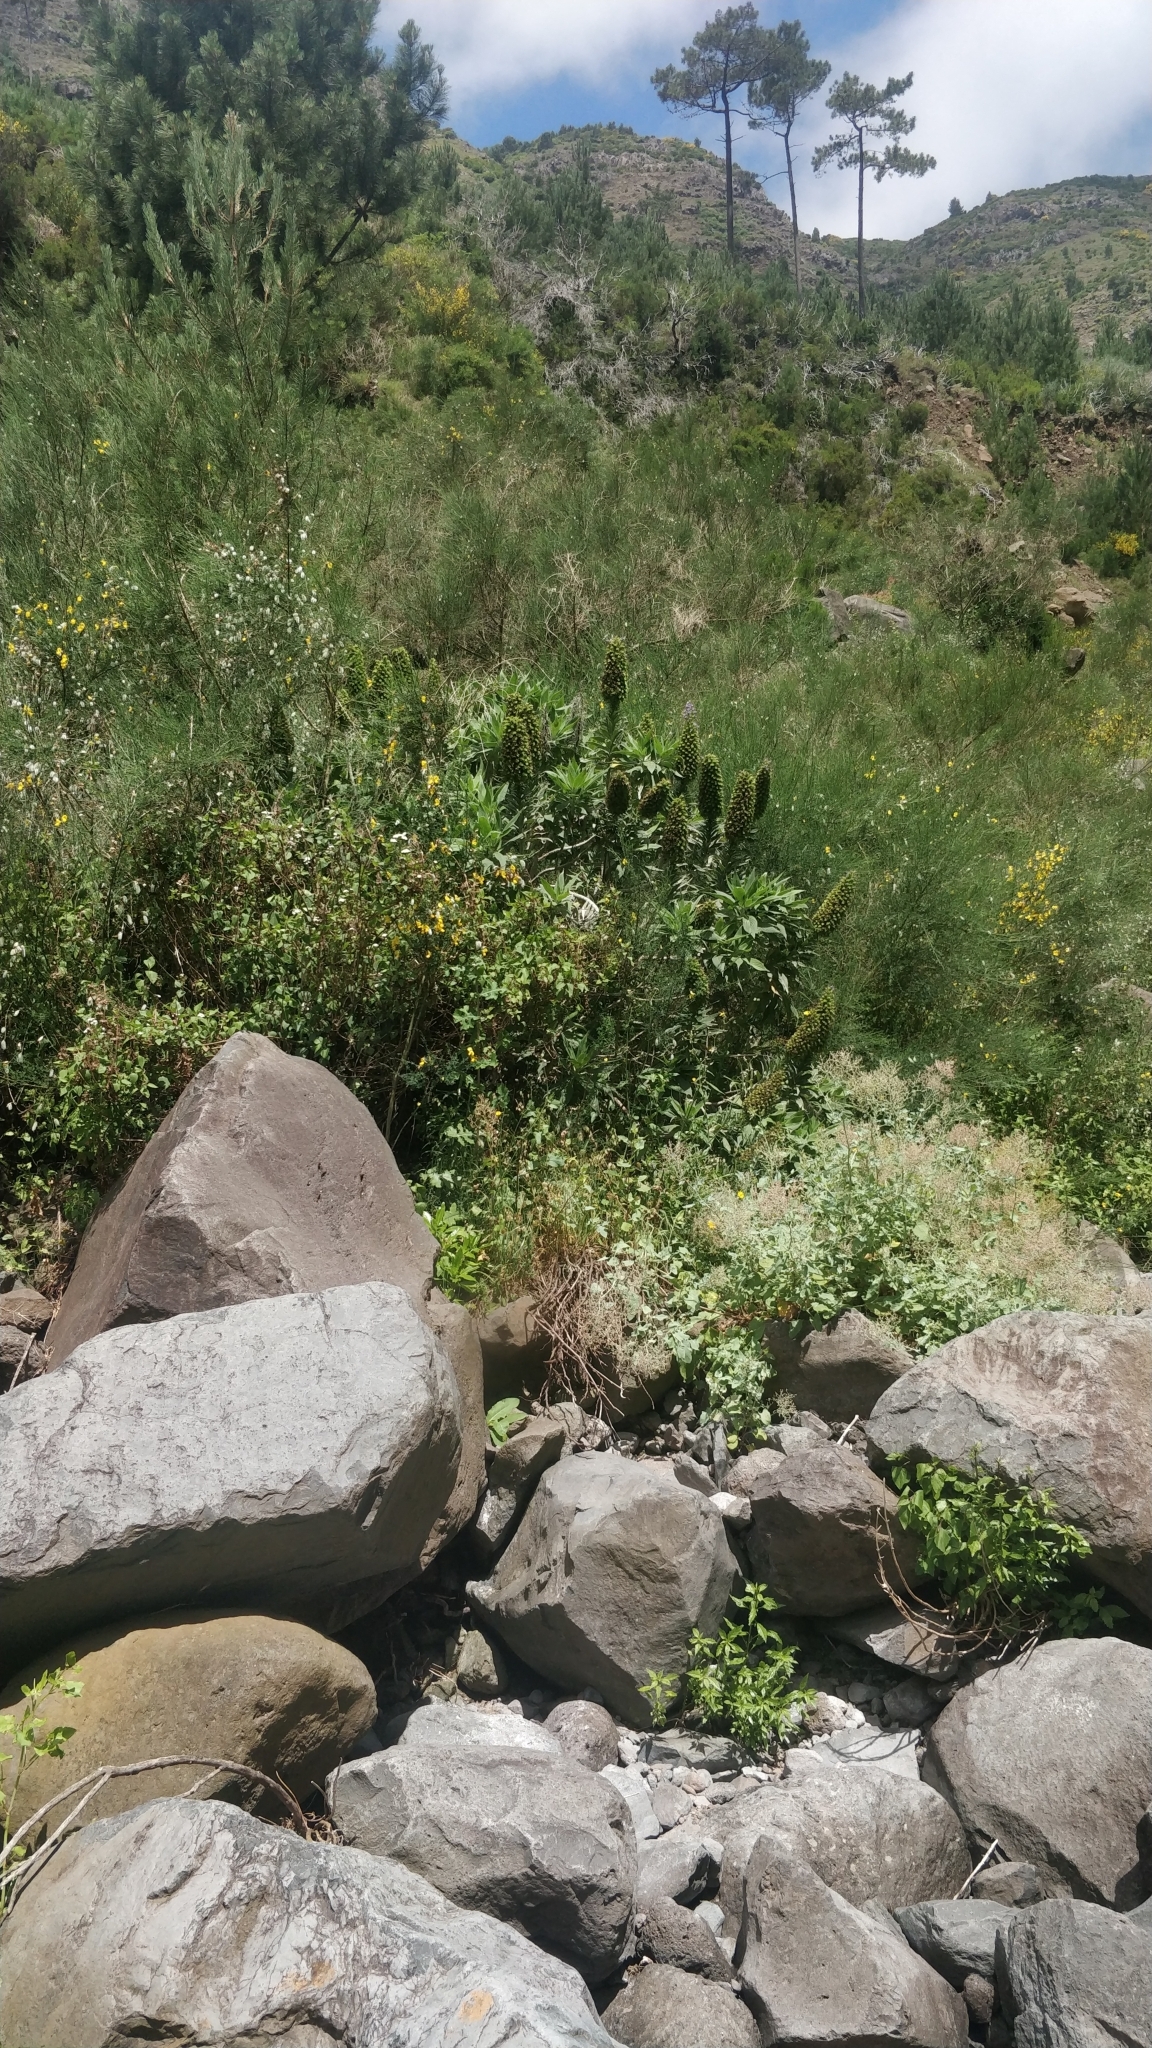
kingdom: Plantae
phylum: Tracheophyta
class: Magnoliopsida
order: Boraginales
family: Boraginaceae
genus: Echium
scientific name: Echium candicans
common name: Pride of madeira
